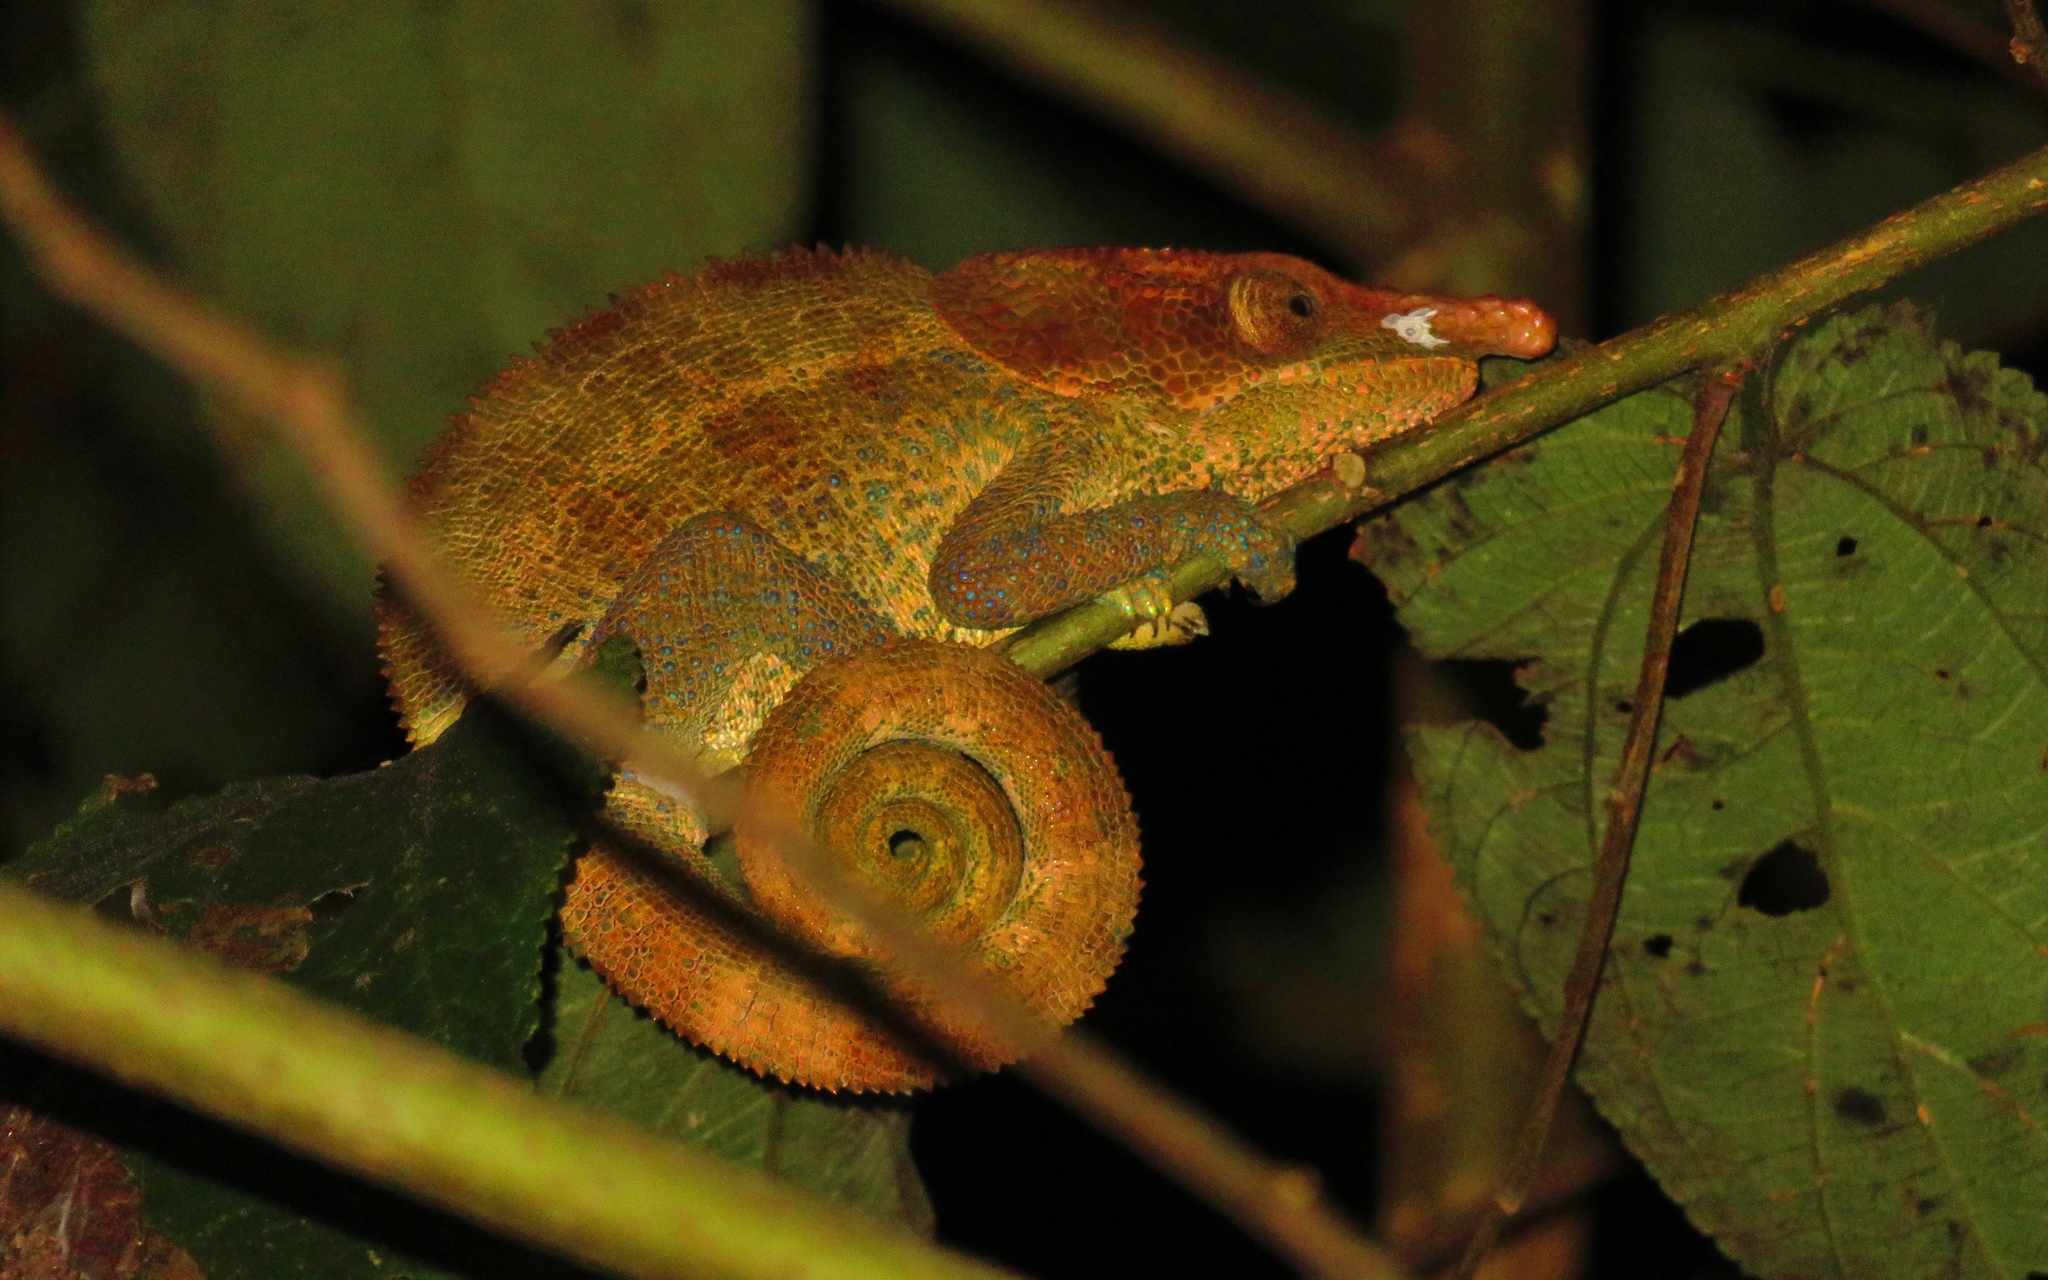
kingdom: Animalia
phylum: Chordata
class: Squamata
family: Chamaeleonidae
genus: Calumma
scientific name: Calumma crypticum
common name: Cryptic chameleon
